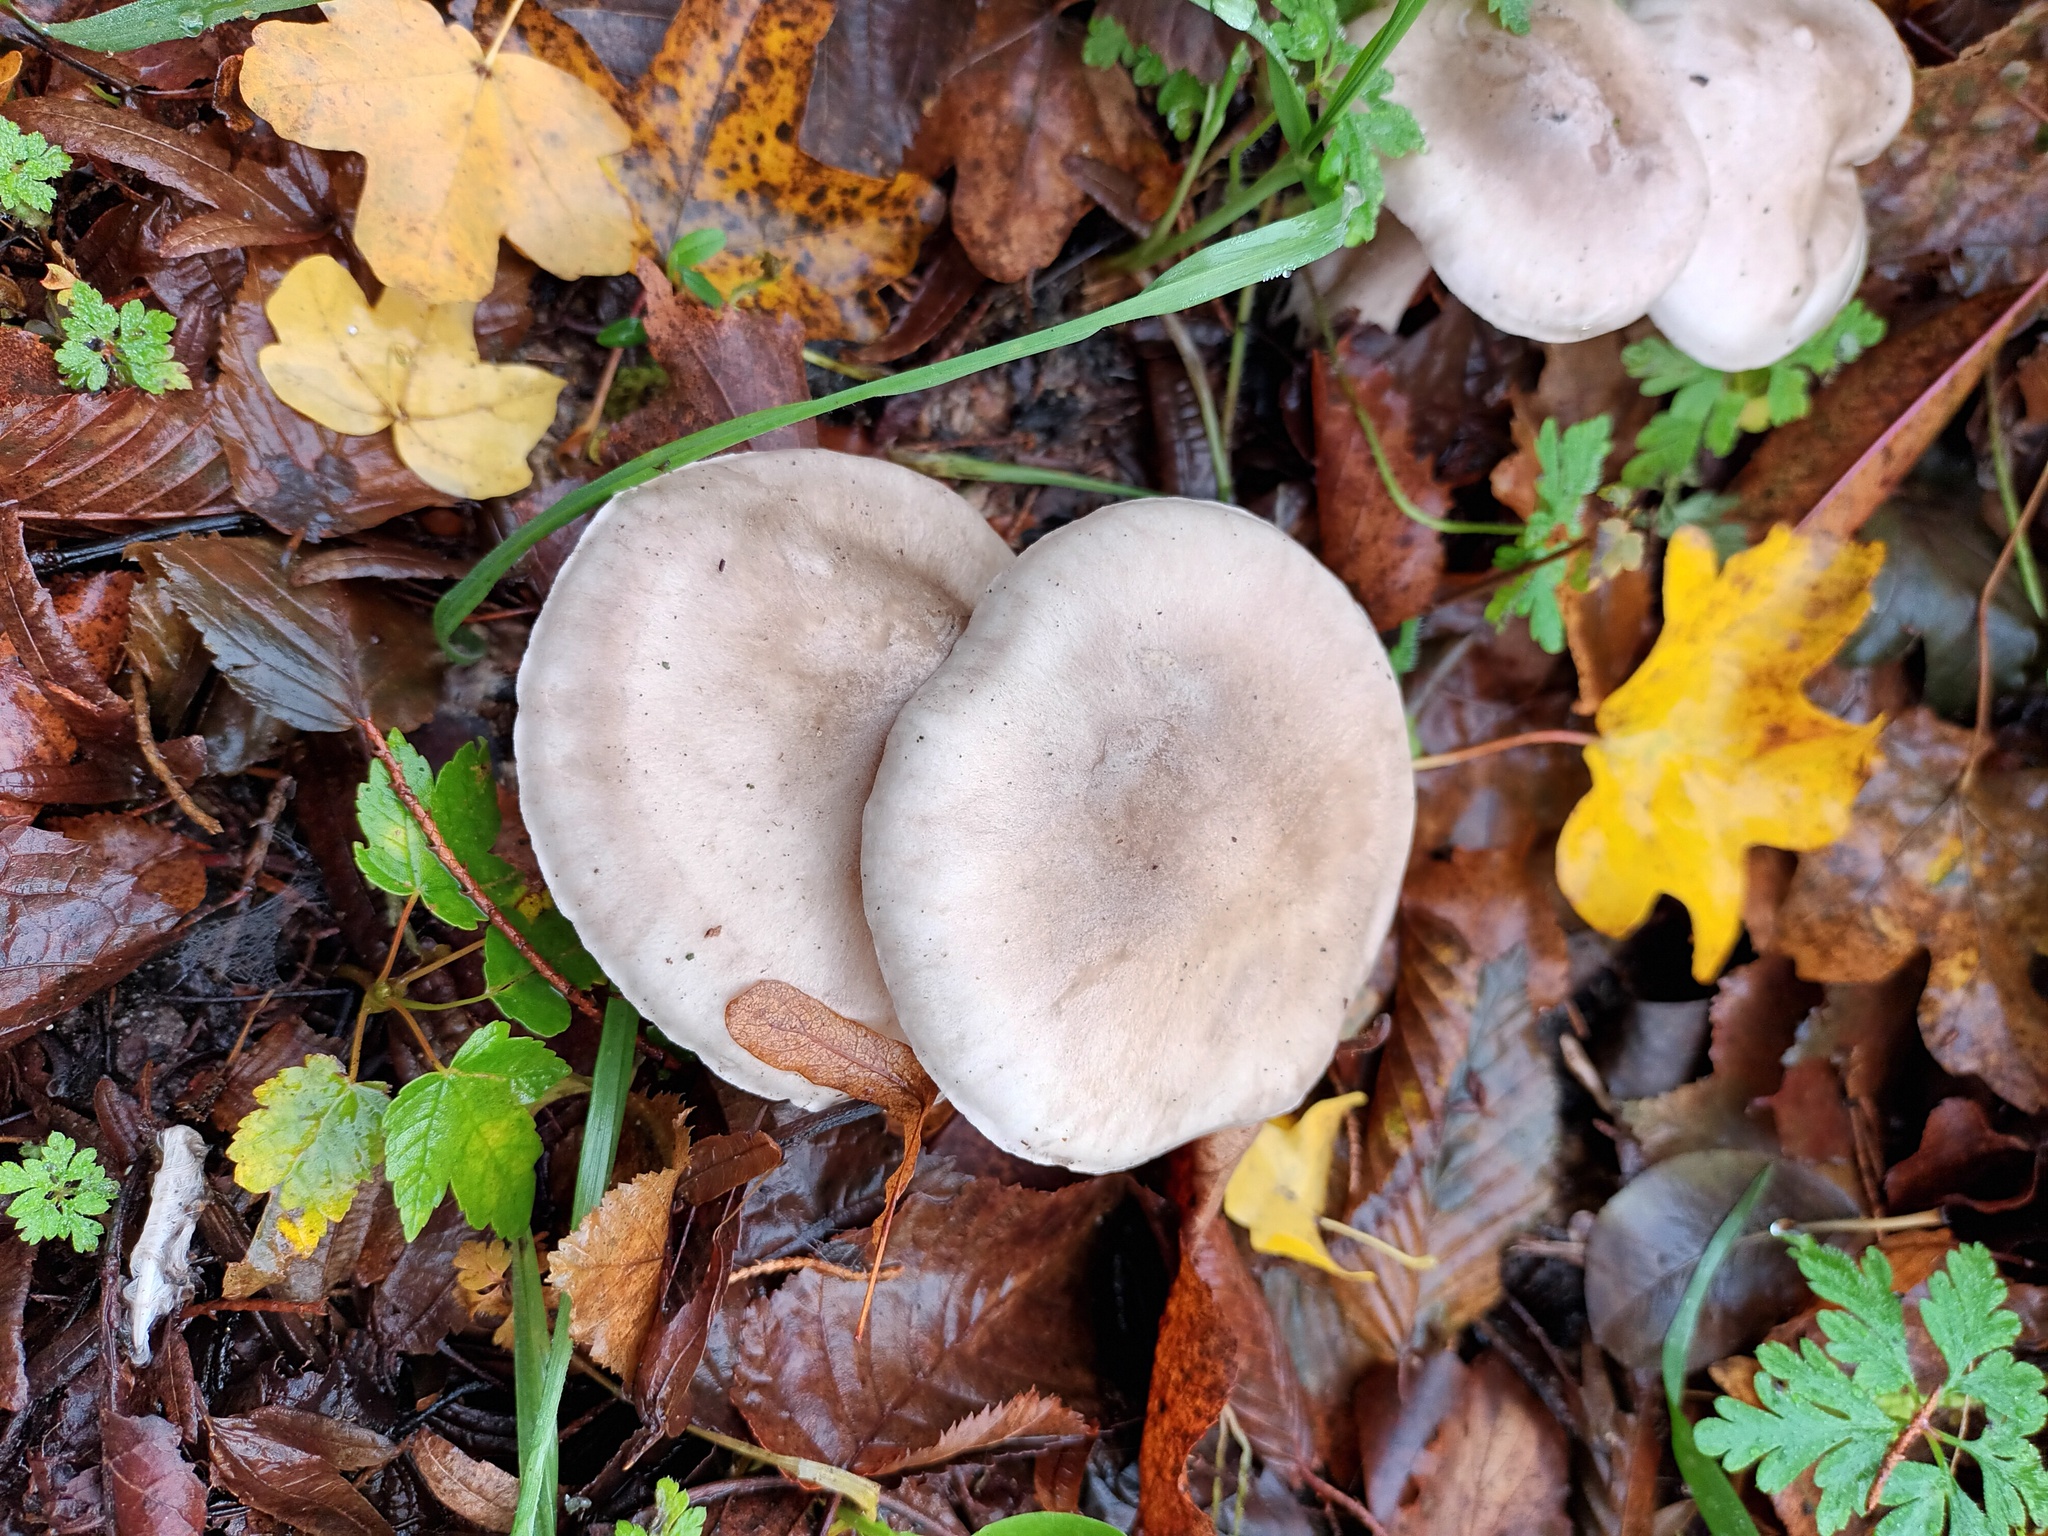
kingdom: Fungi
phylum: Basidiomycota
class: Agaricomycetes
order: Agaricales
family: Tricholomataceae
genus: Clitocybe
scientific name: Clitocybe nebularis
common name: Clouded agaric
